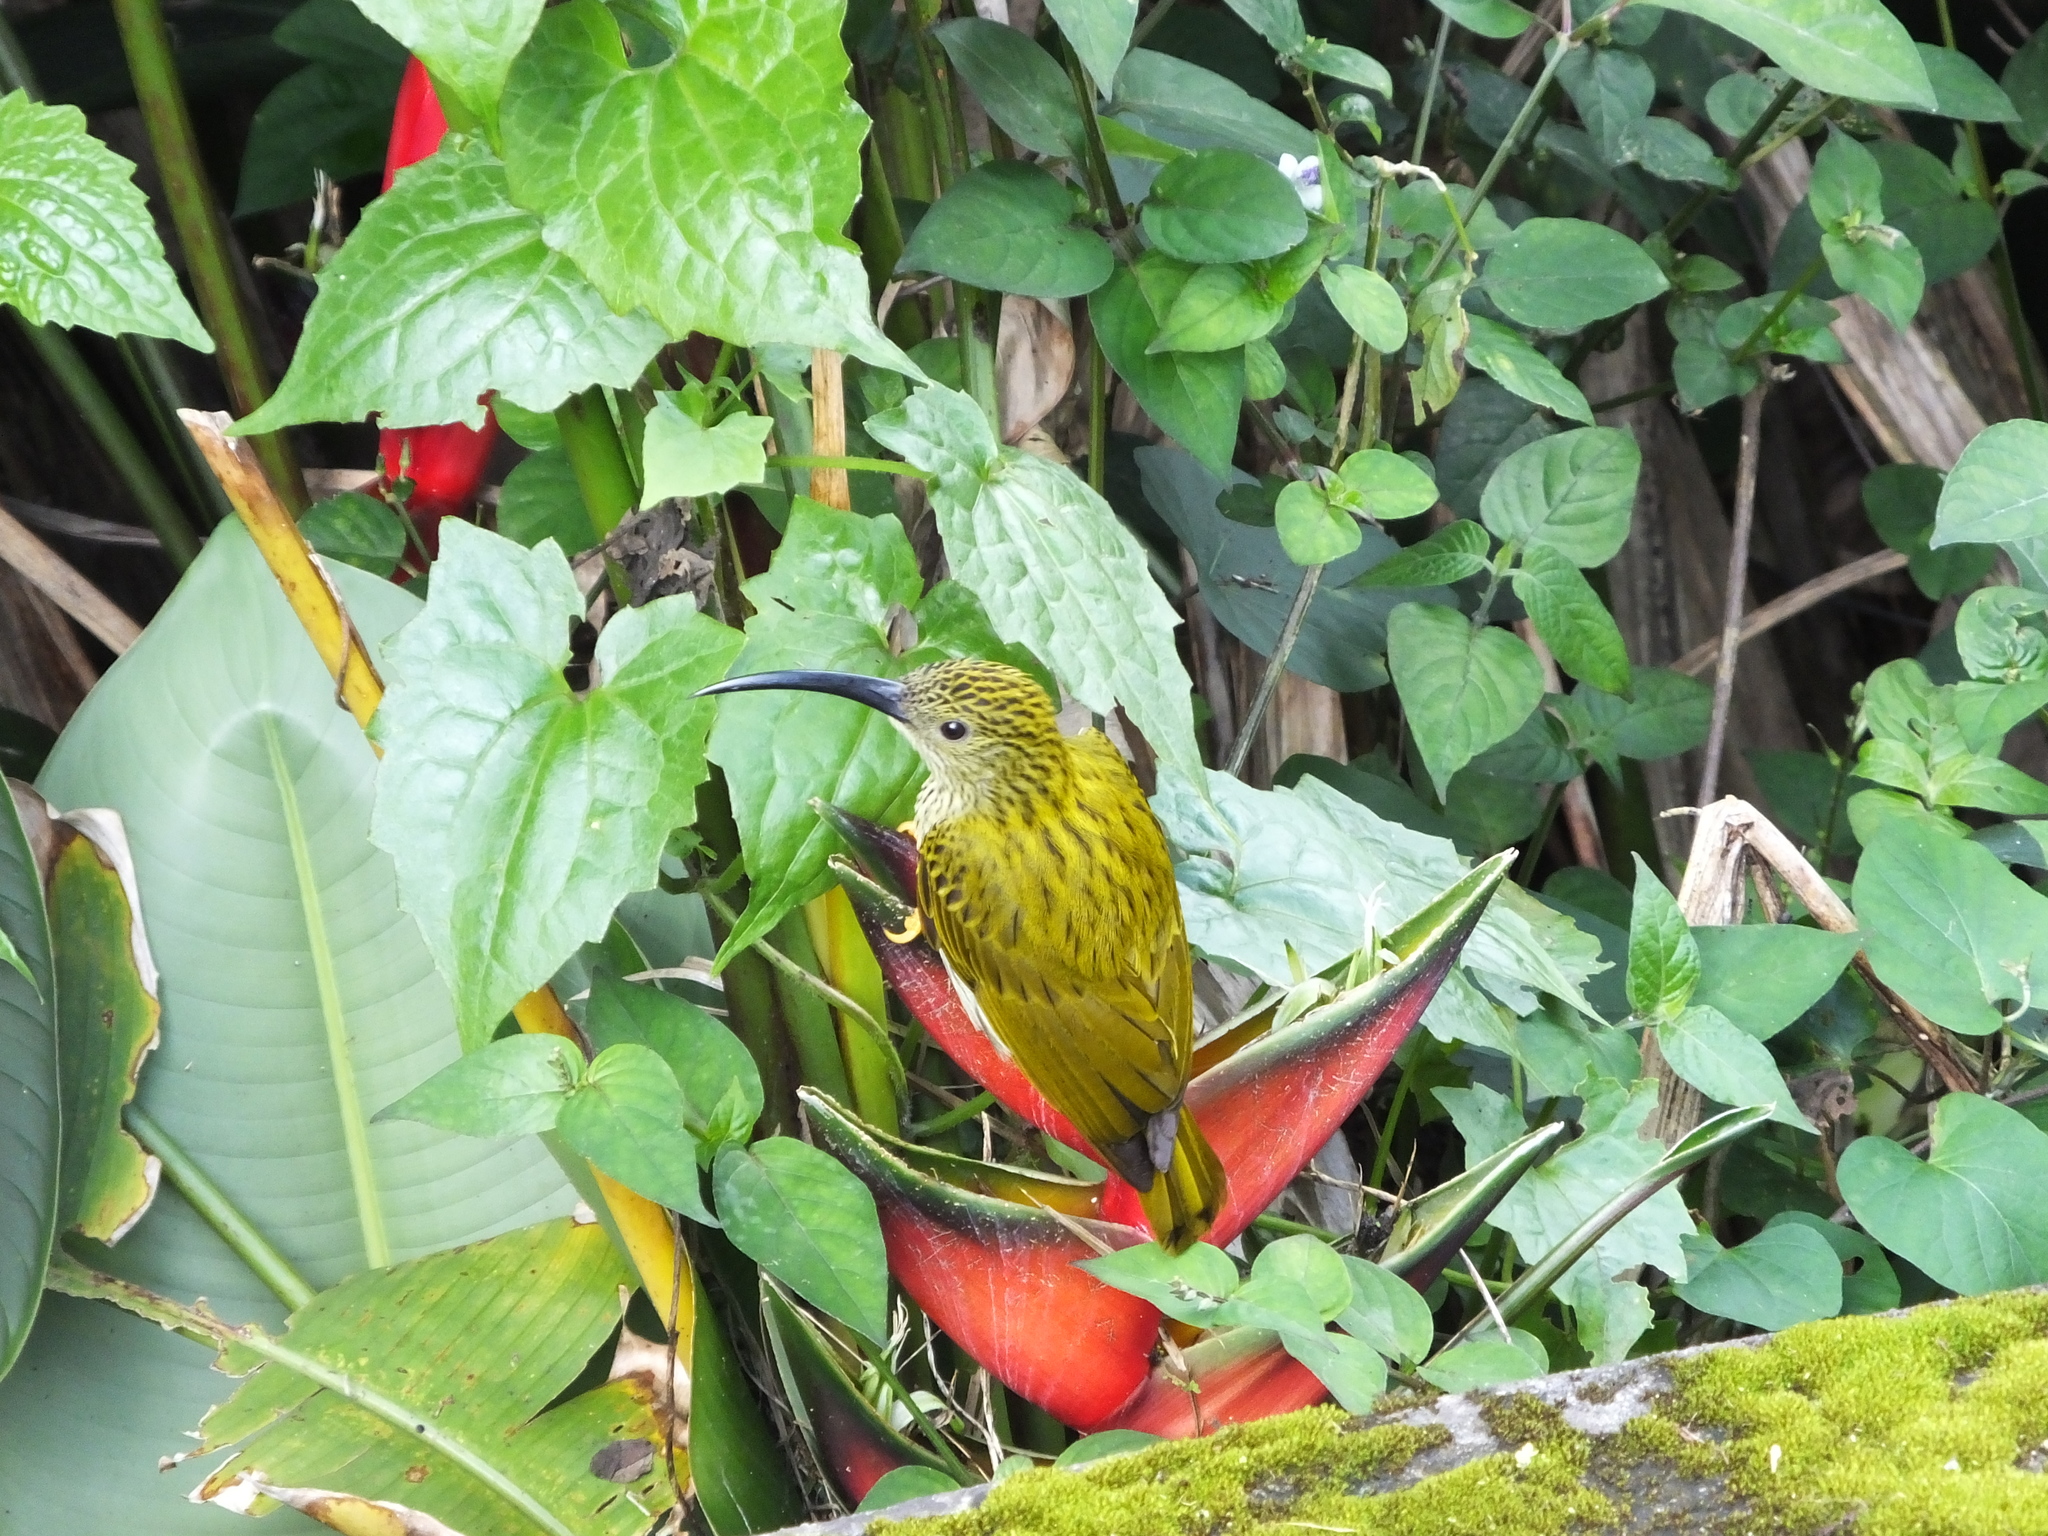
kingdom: Animalia
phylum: Chordata
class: Aves
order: Passeriformes
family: Nectariniidae
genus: Arachnothera
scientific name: Arachnothera magna
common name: Streaked spiderhunter
